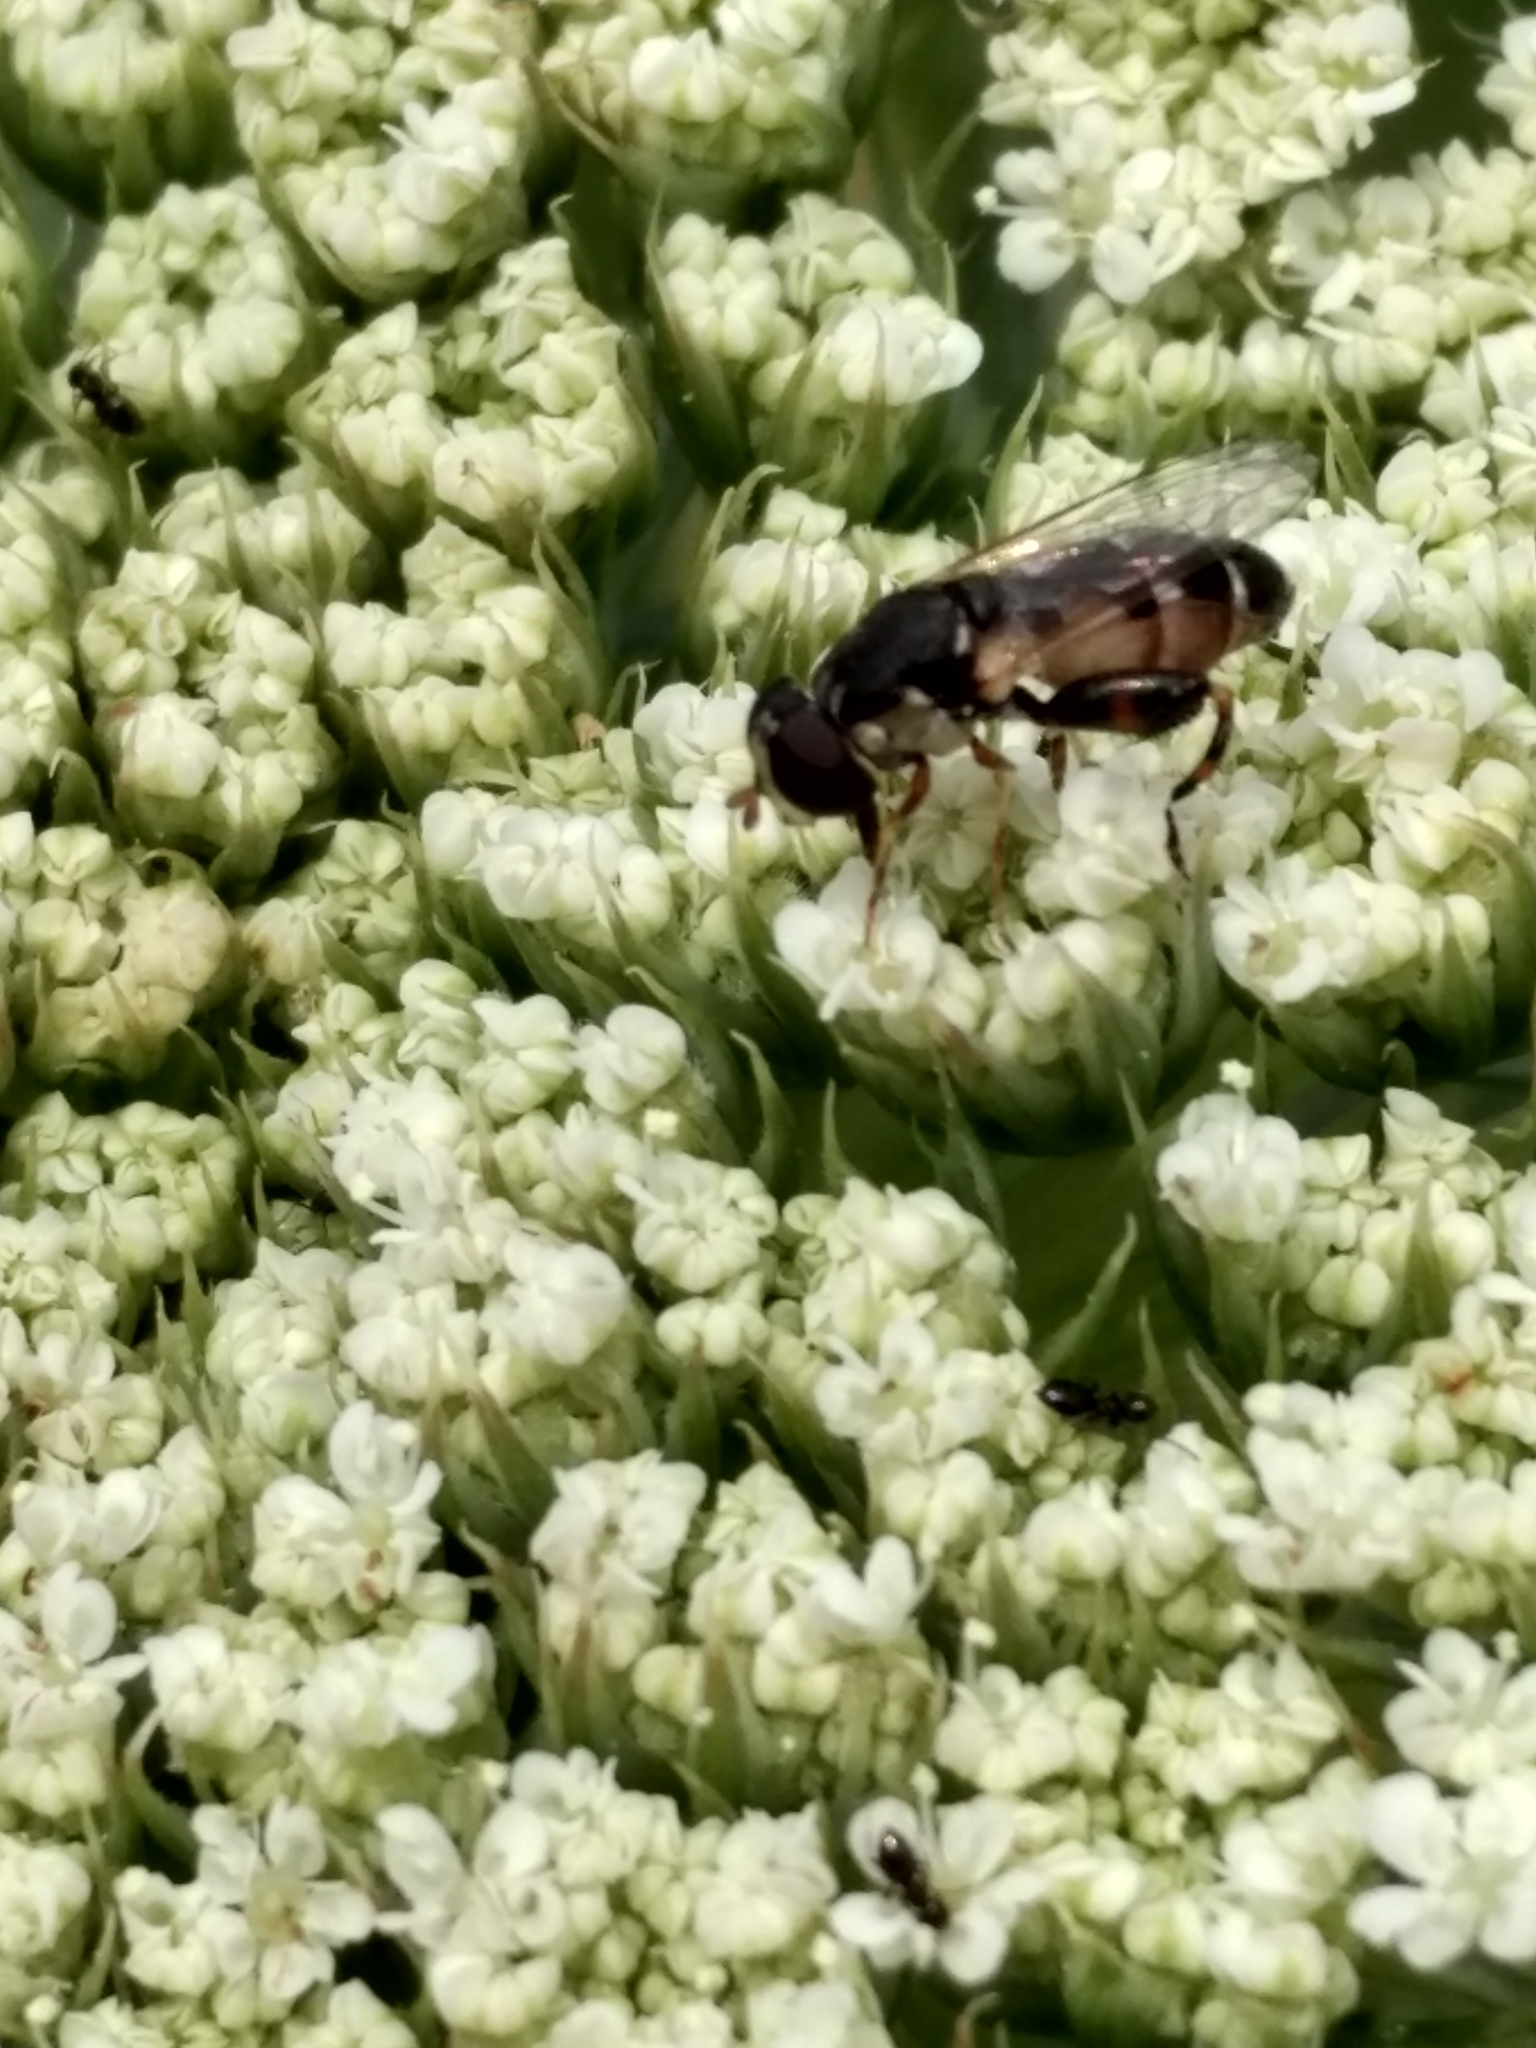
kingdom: Animalia
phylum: Arthropoda
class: Insecta
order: Diptera
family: Syrphidae
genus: Syritta
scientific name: Syritta pipiens
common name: Hover fly
